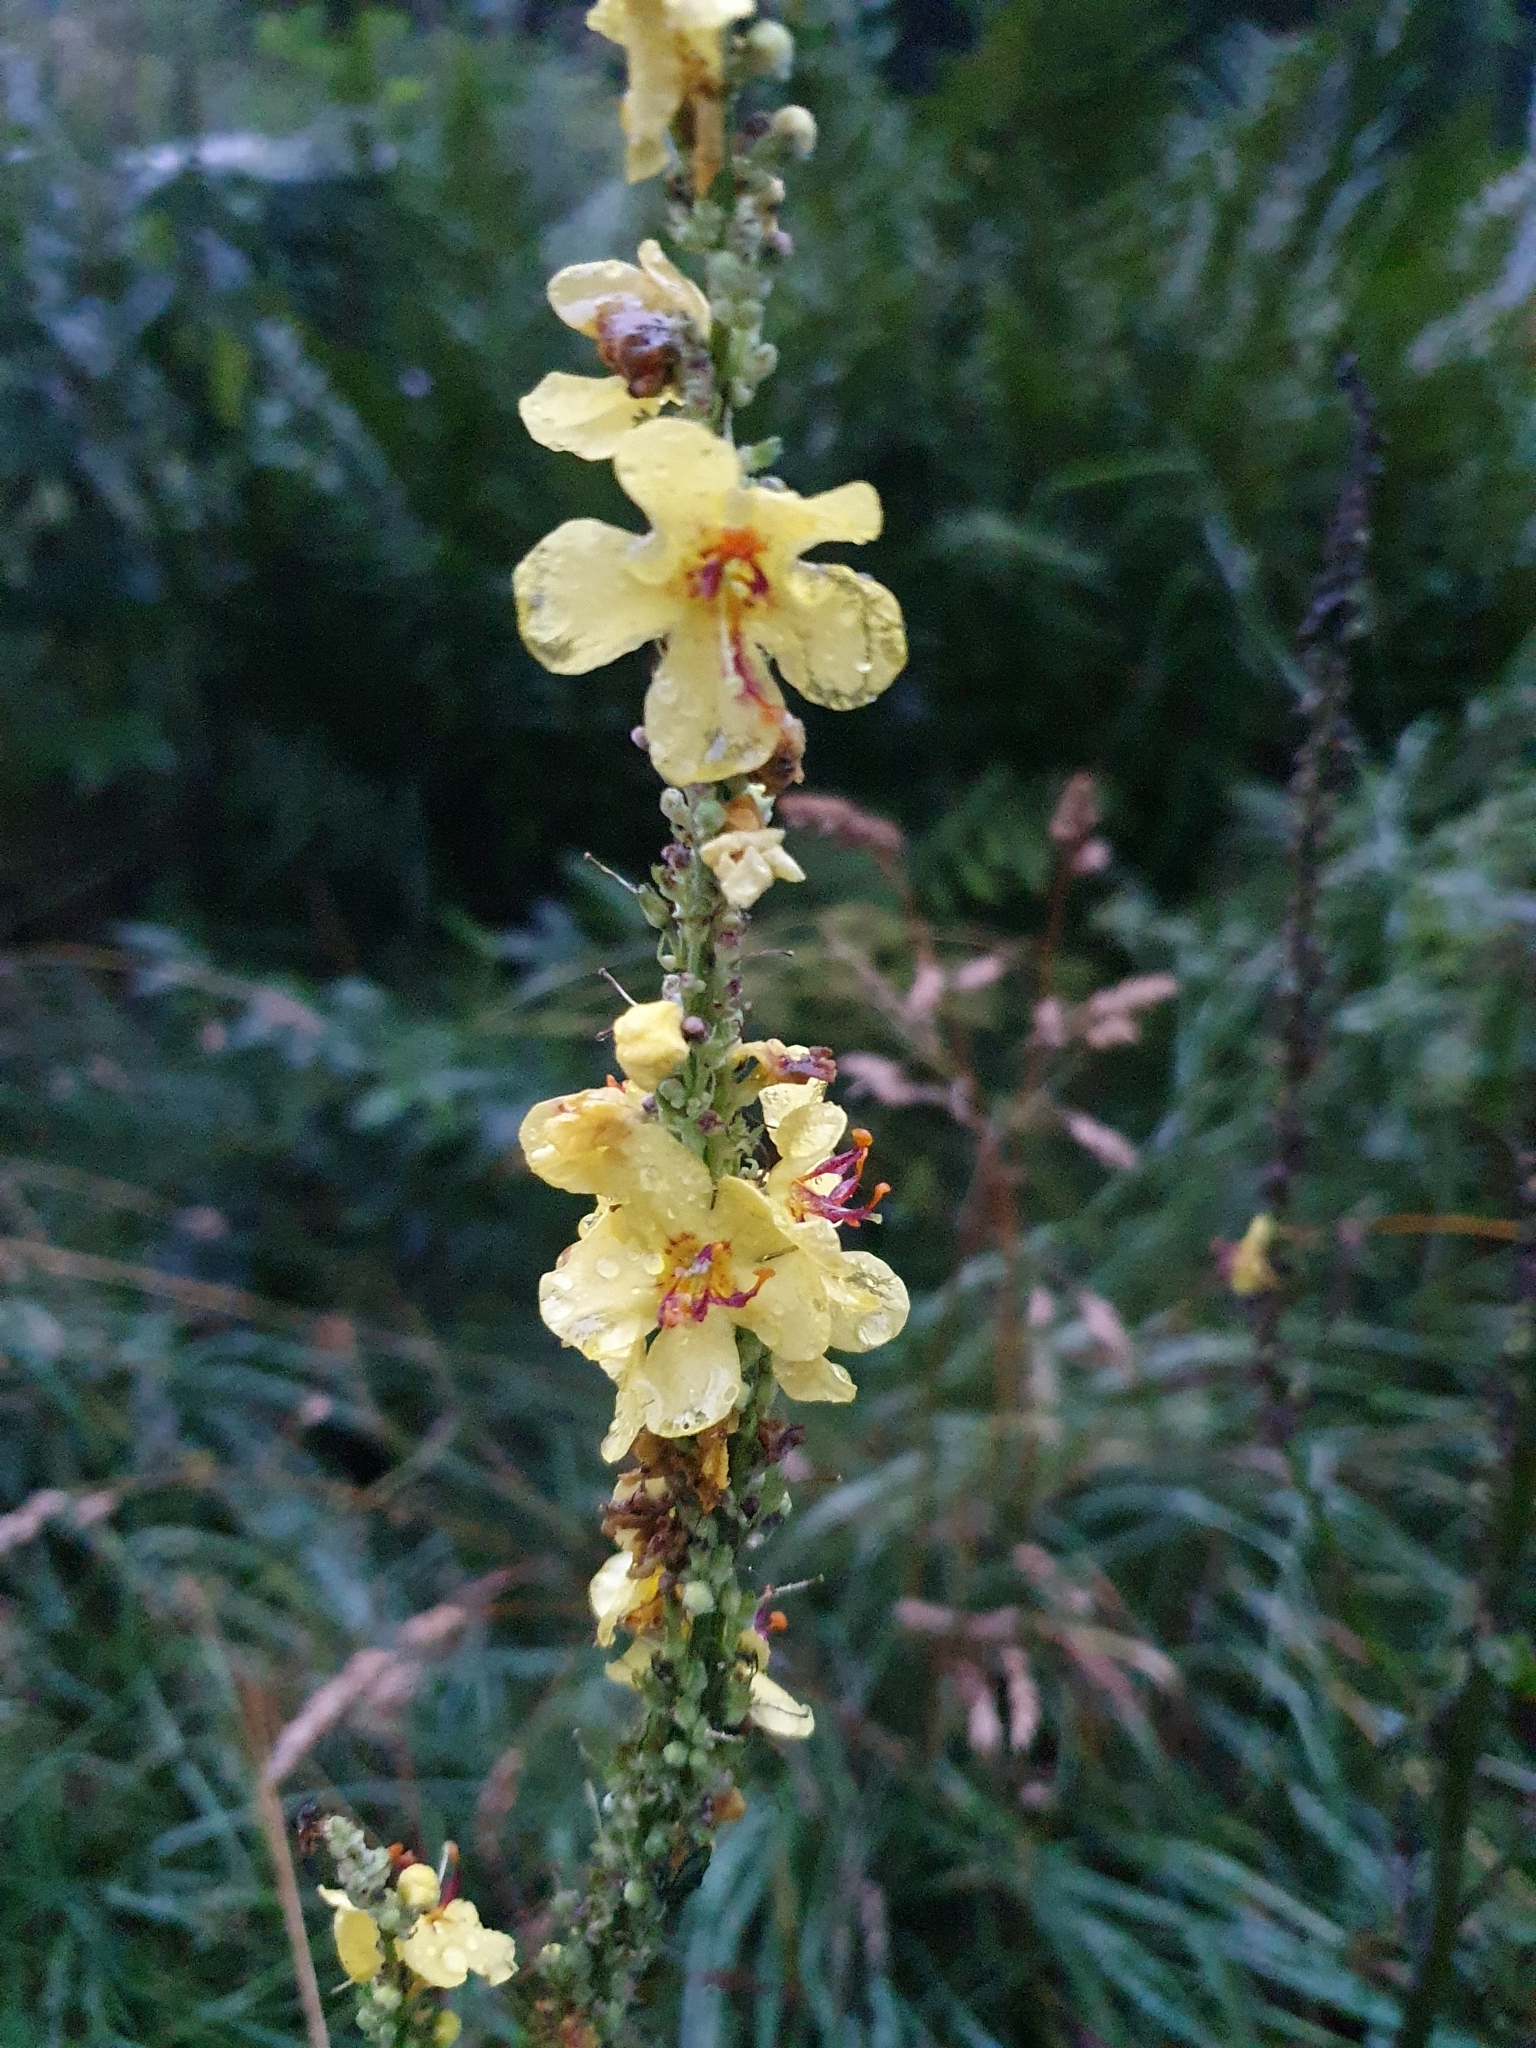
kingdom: Plantae
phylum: Tracheophyta
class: Magnoliopsida
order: Lamiales
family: Scrophulariaceae
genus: Verbascum
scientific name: Verbascum nigrum
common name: Dark mullein
